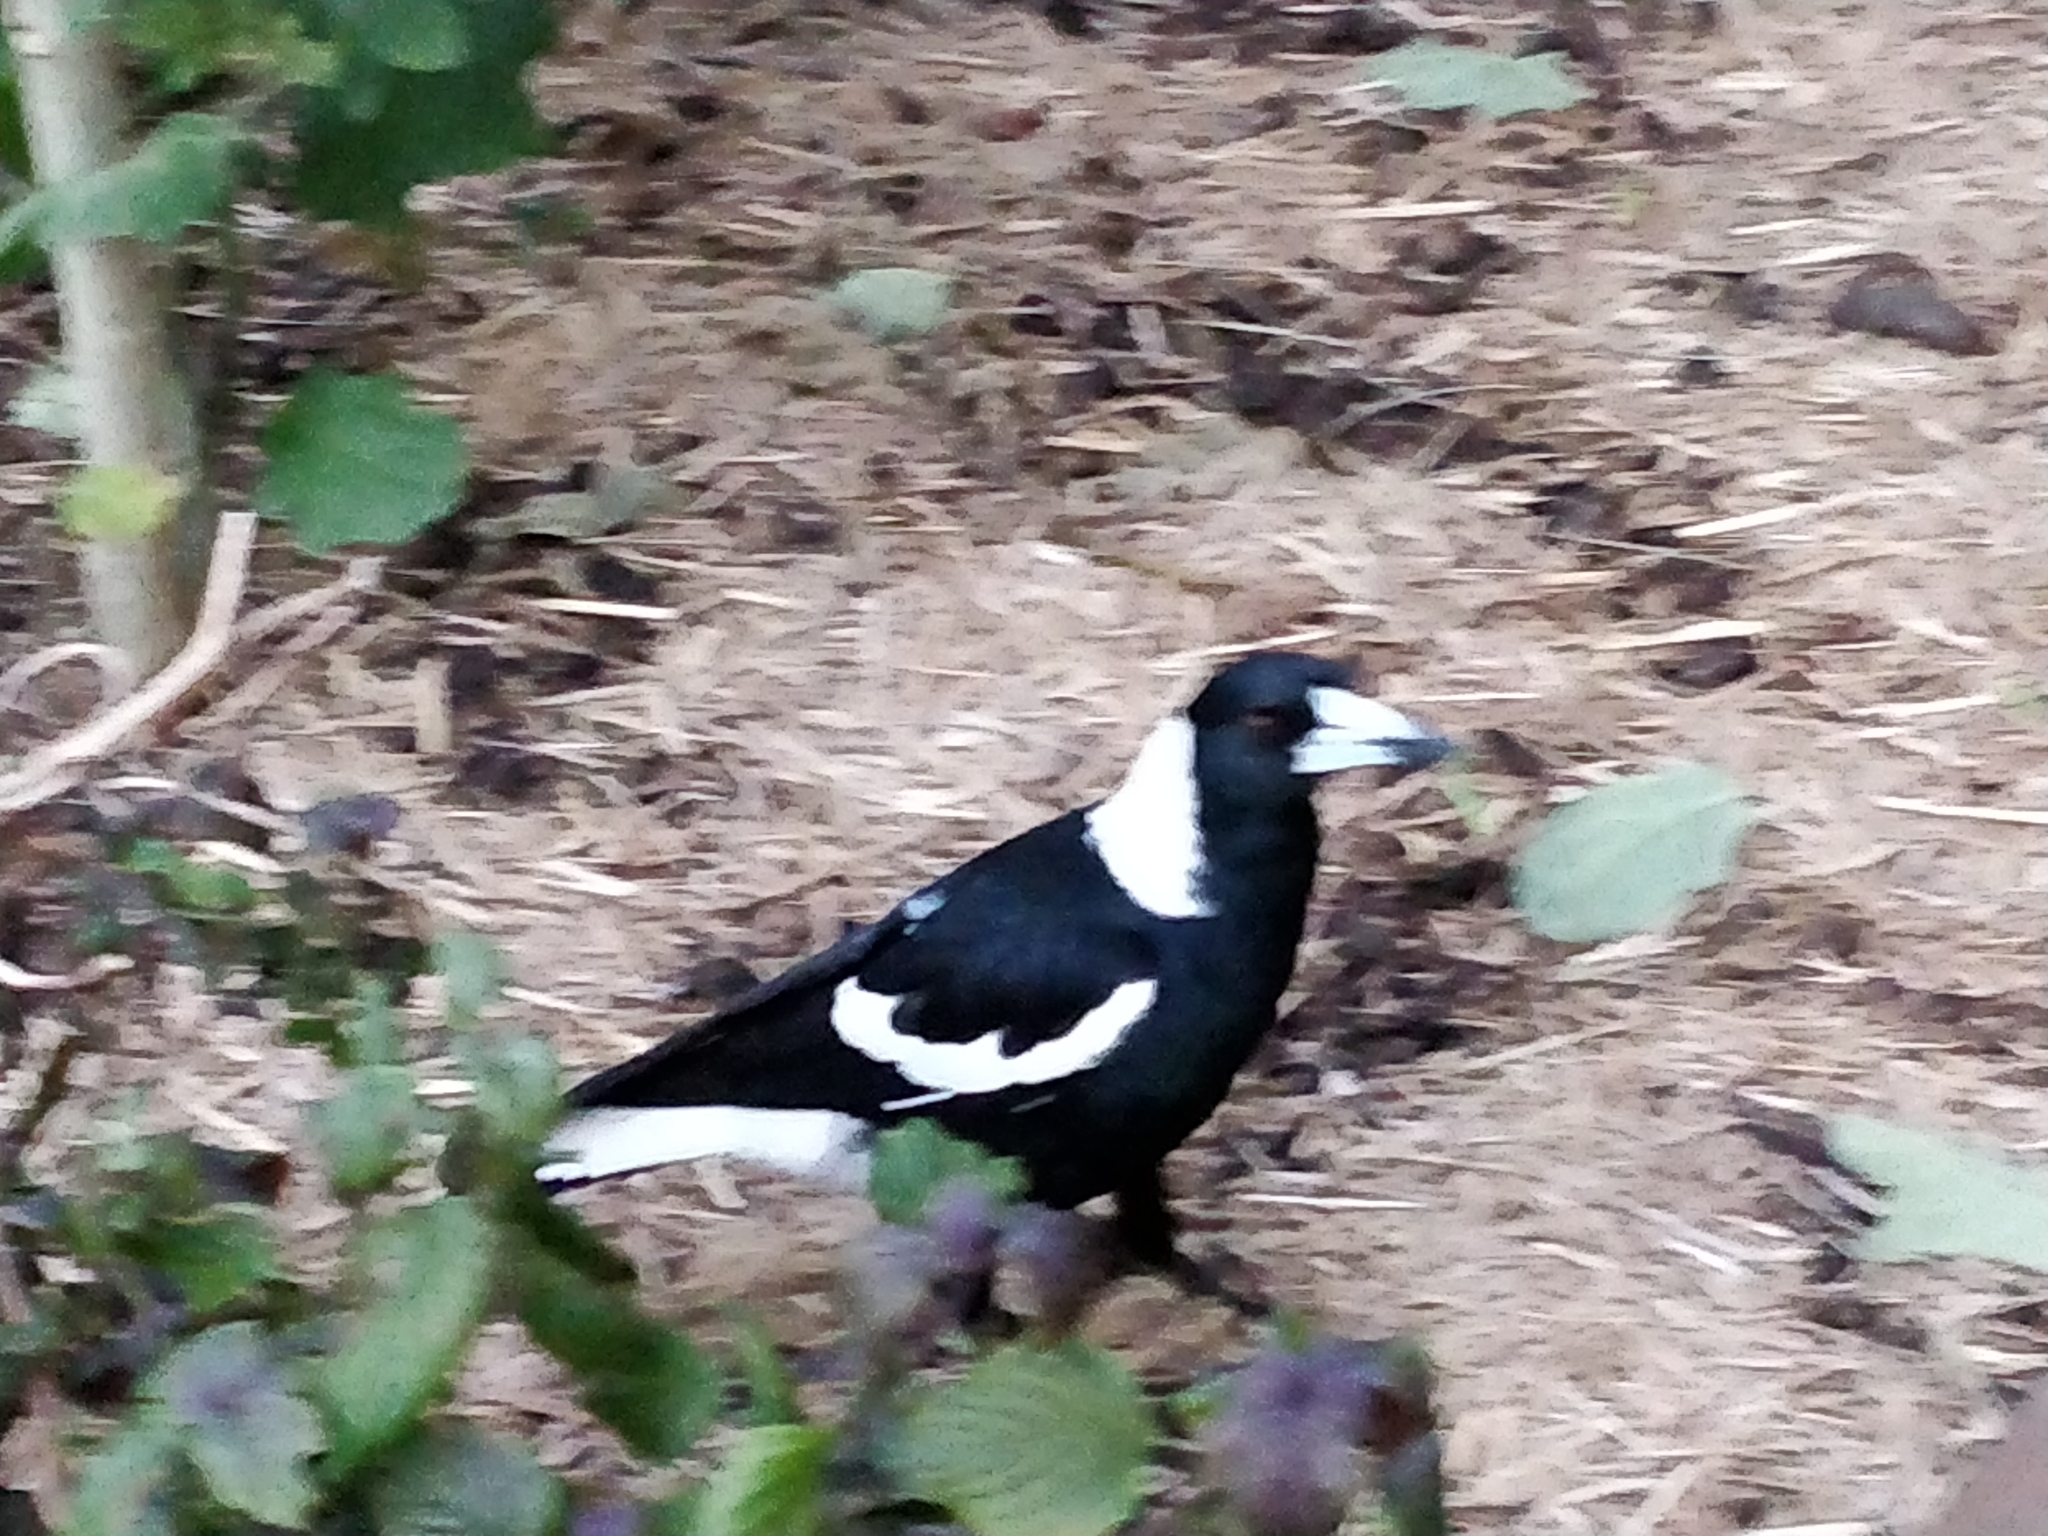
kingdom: Animalia
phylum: Chordata
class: Aves
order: Passeriformes
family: Cracticidae
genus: Gymnorhina
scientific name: Gymnorhina tibicen
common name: Australian magpie
